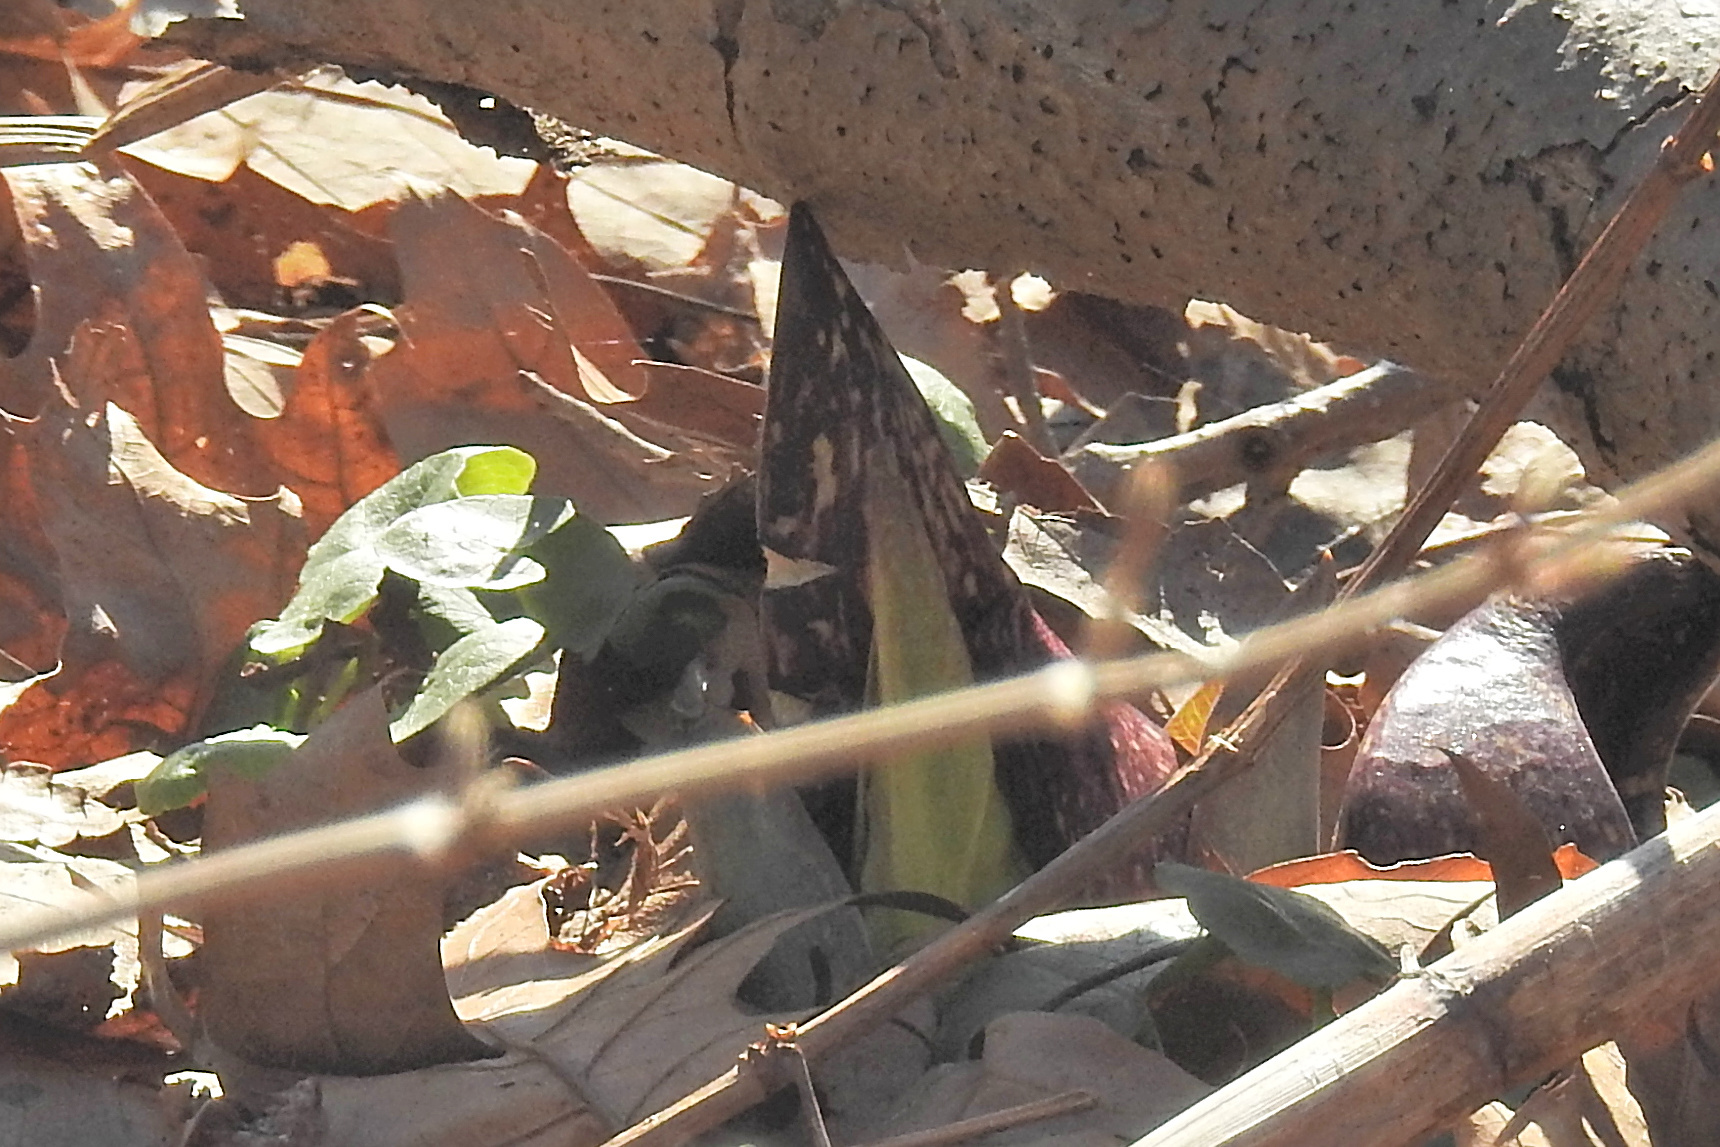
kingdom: Plantae
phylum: Tracheophyta
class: Liliopsida
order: Alismatales
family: Araceae
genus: Symplocarpus
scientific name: Symplocarpus foetidus
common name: Eastern skunk cabbage
